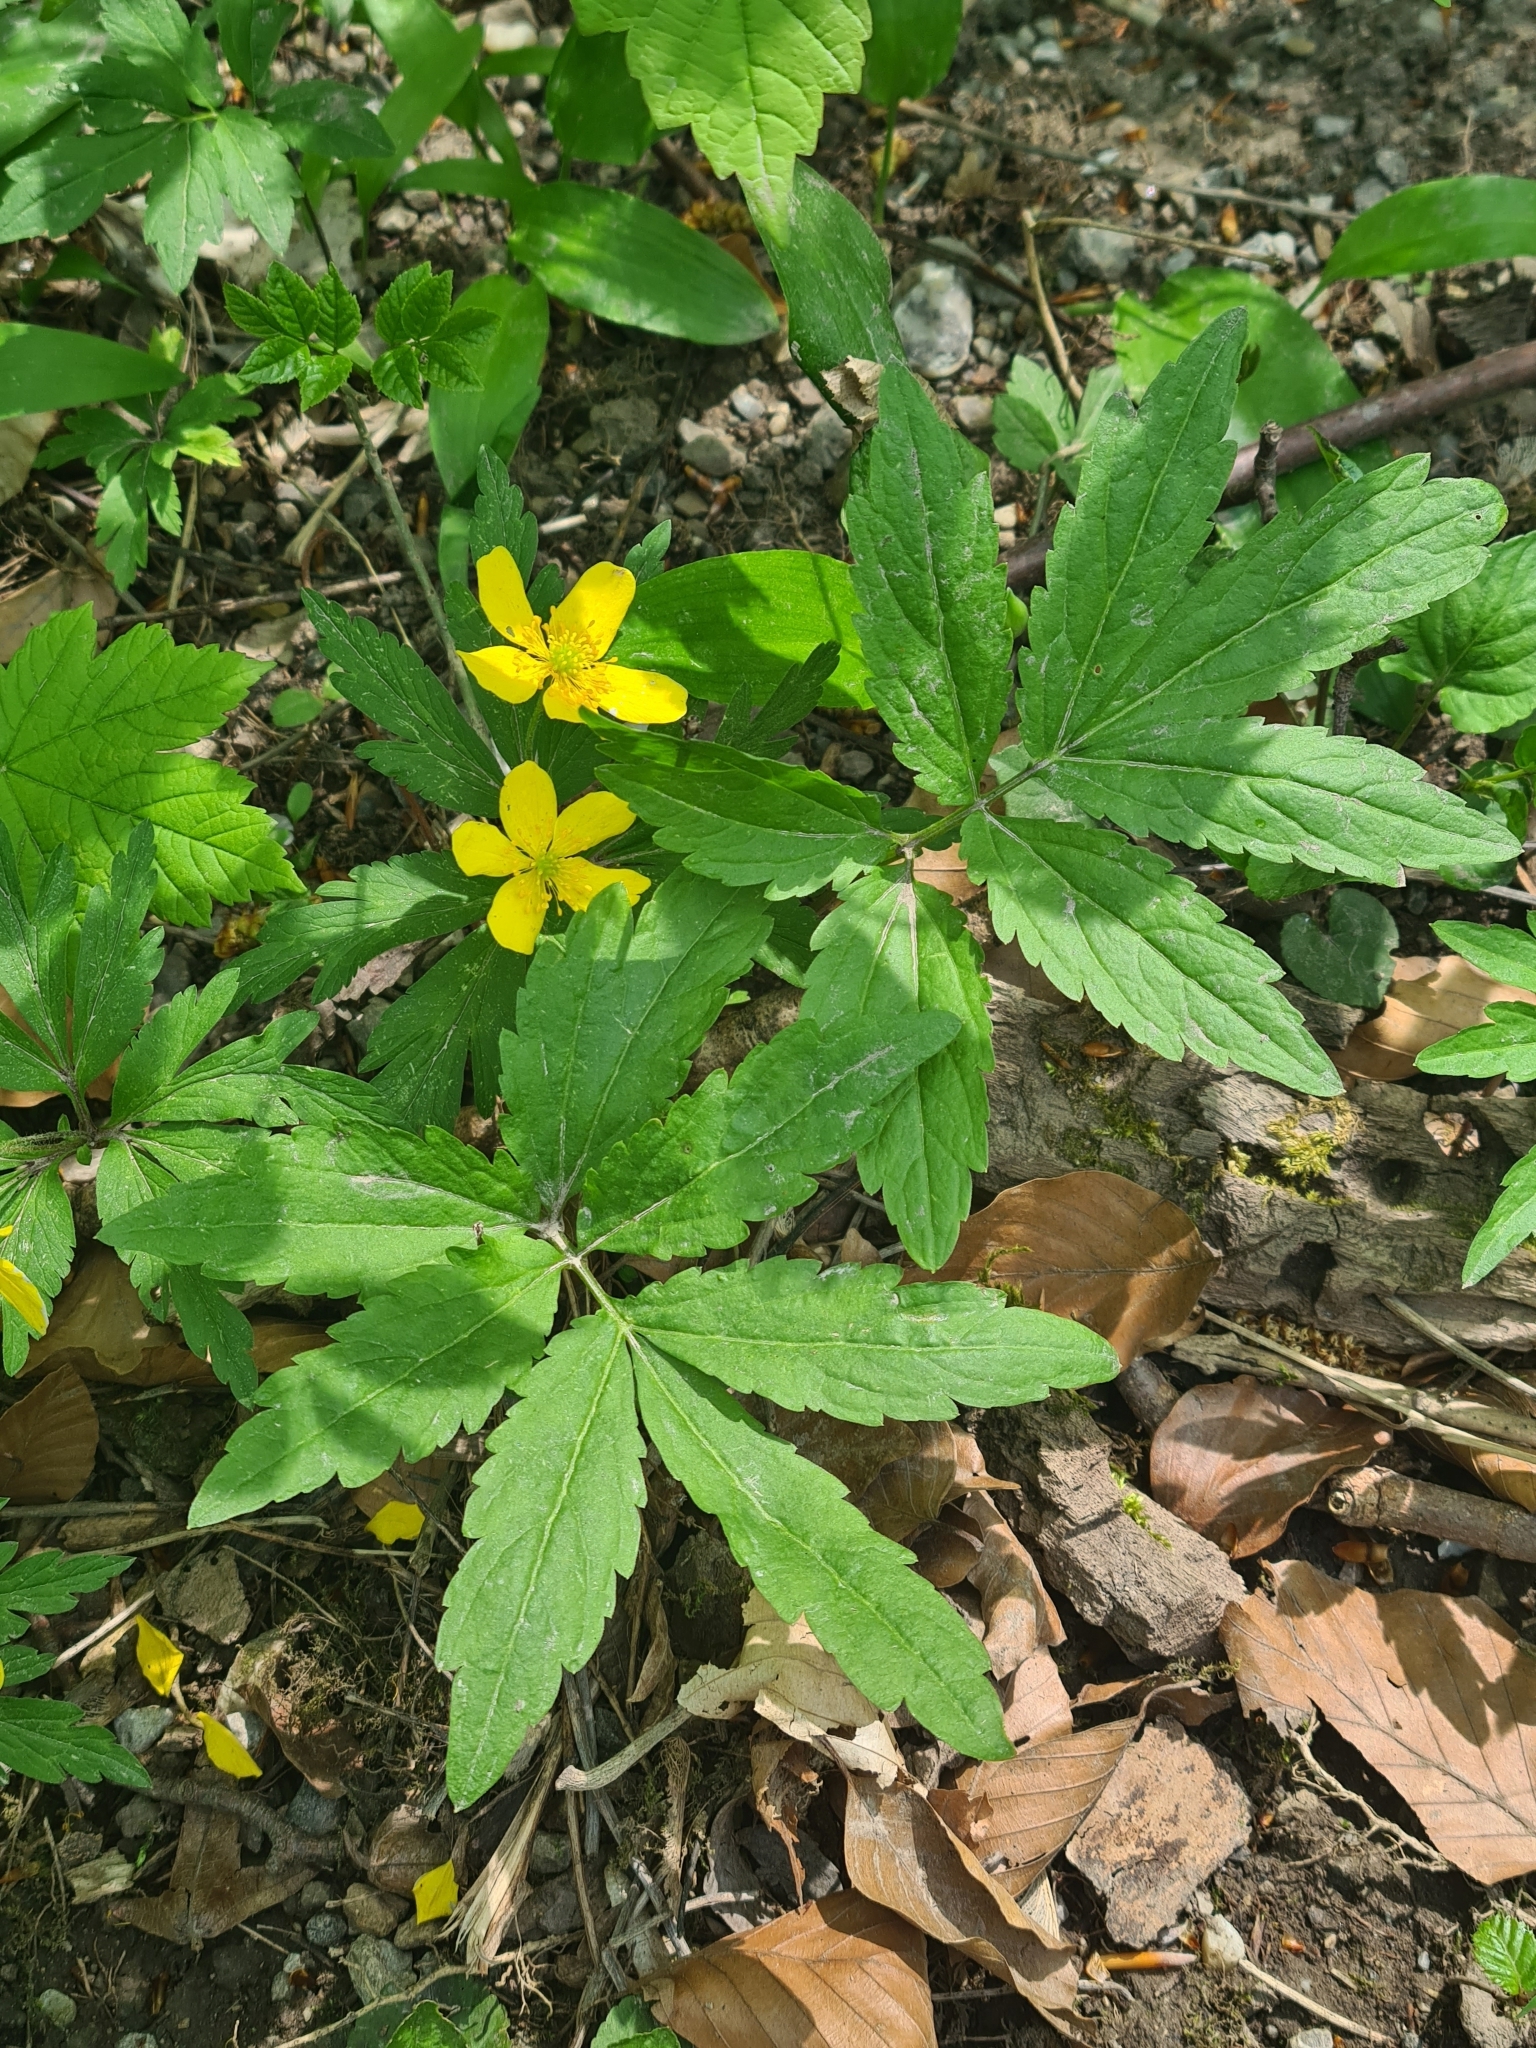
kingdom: Plantae
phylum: Tracheophyta
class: Magnoliopsida
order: Ranunculales
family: Ranunculaceae
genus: Anemone
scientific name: Anemone ranunculoides
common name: Yellow anemone
